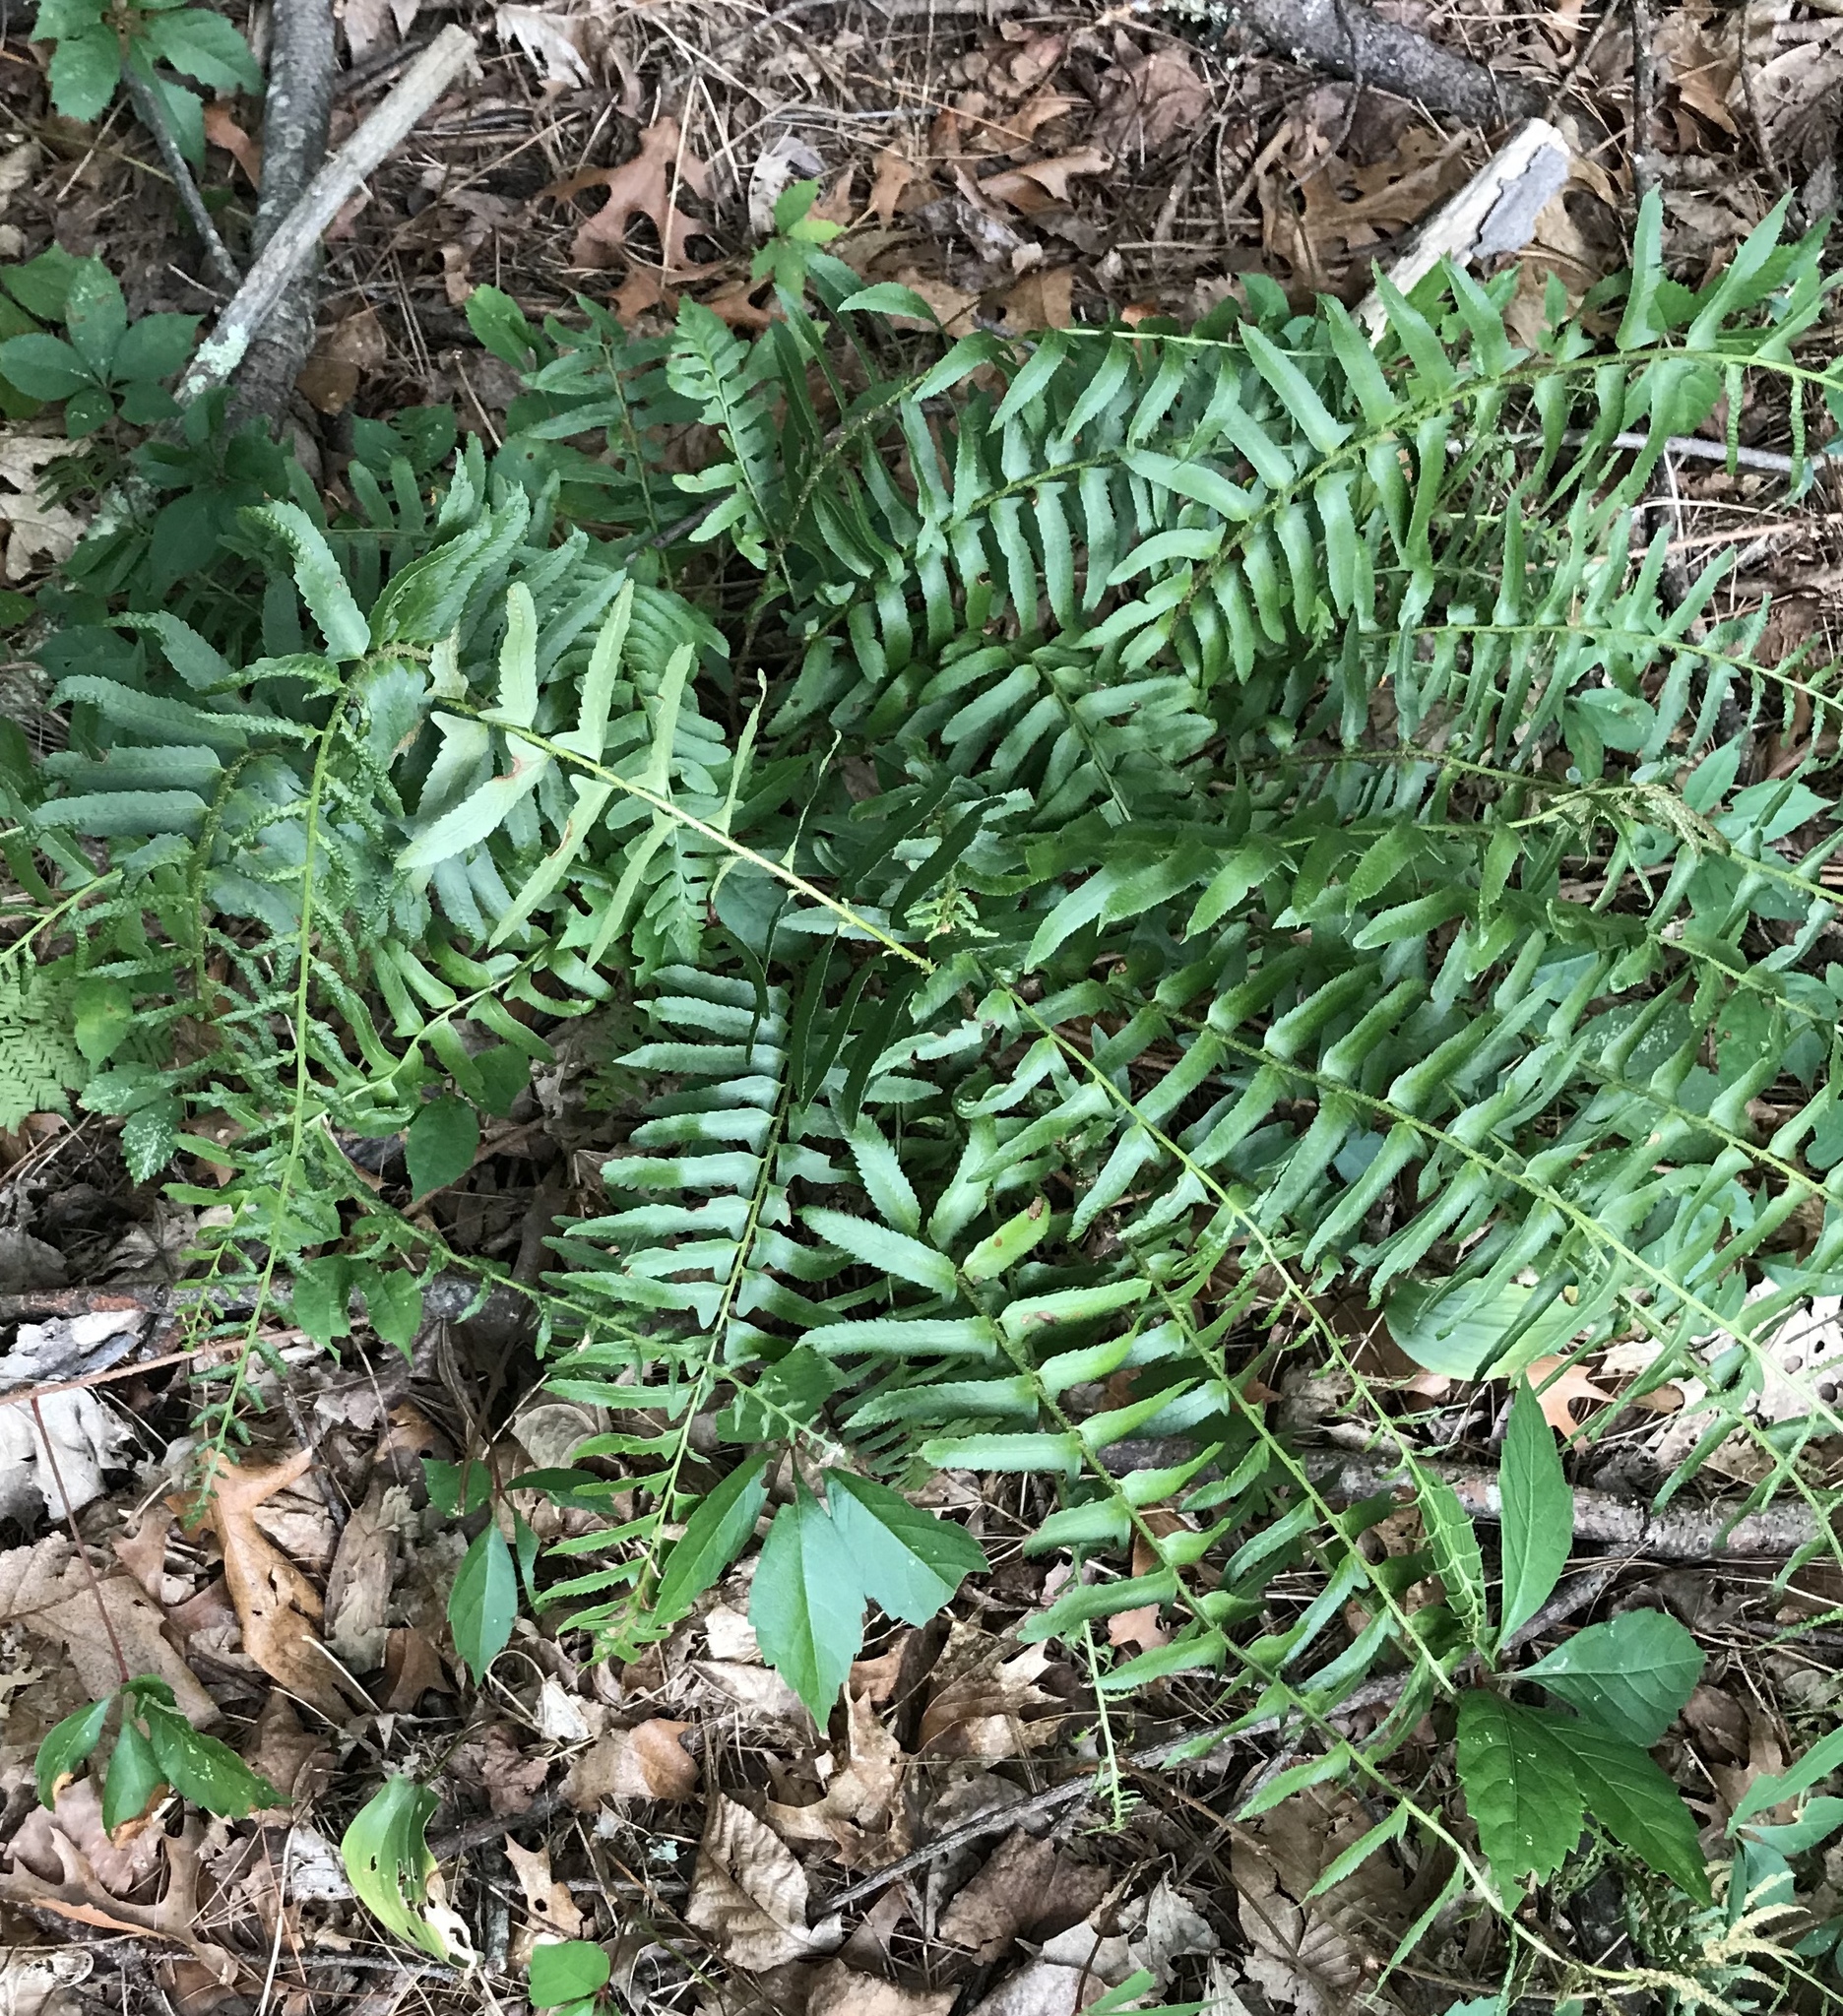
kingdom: Plantae
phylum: Tracheophyta
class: Polypodiopsida
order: Polypodiales
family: Dryopteridaceae
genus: Polystichum
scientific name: Polystichum acrostichoides
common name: Christmas fern
